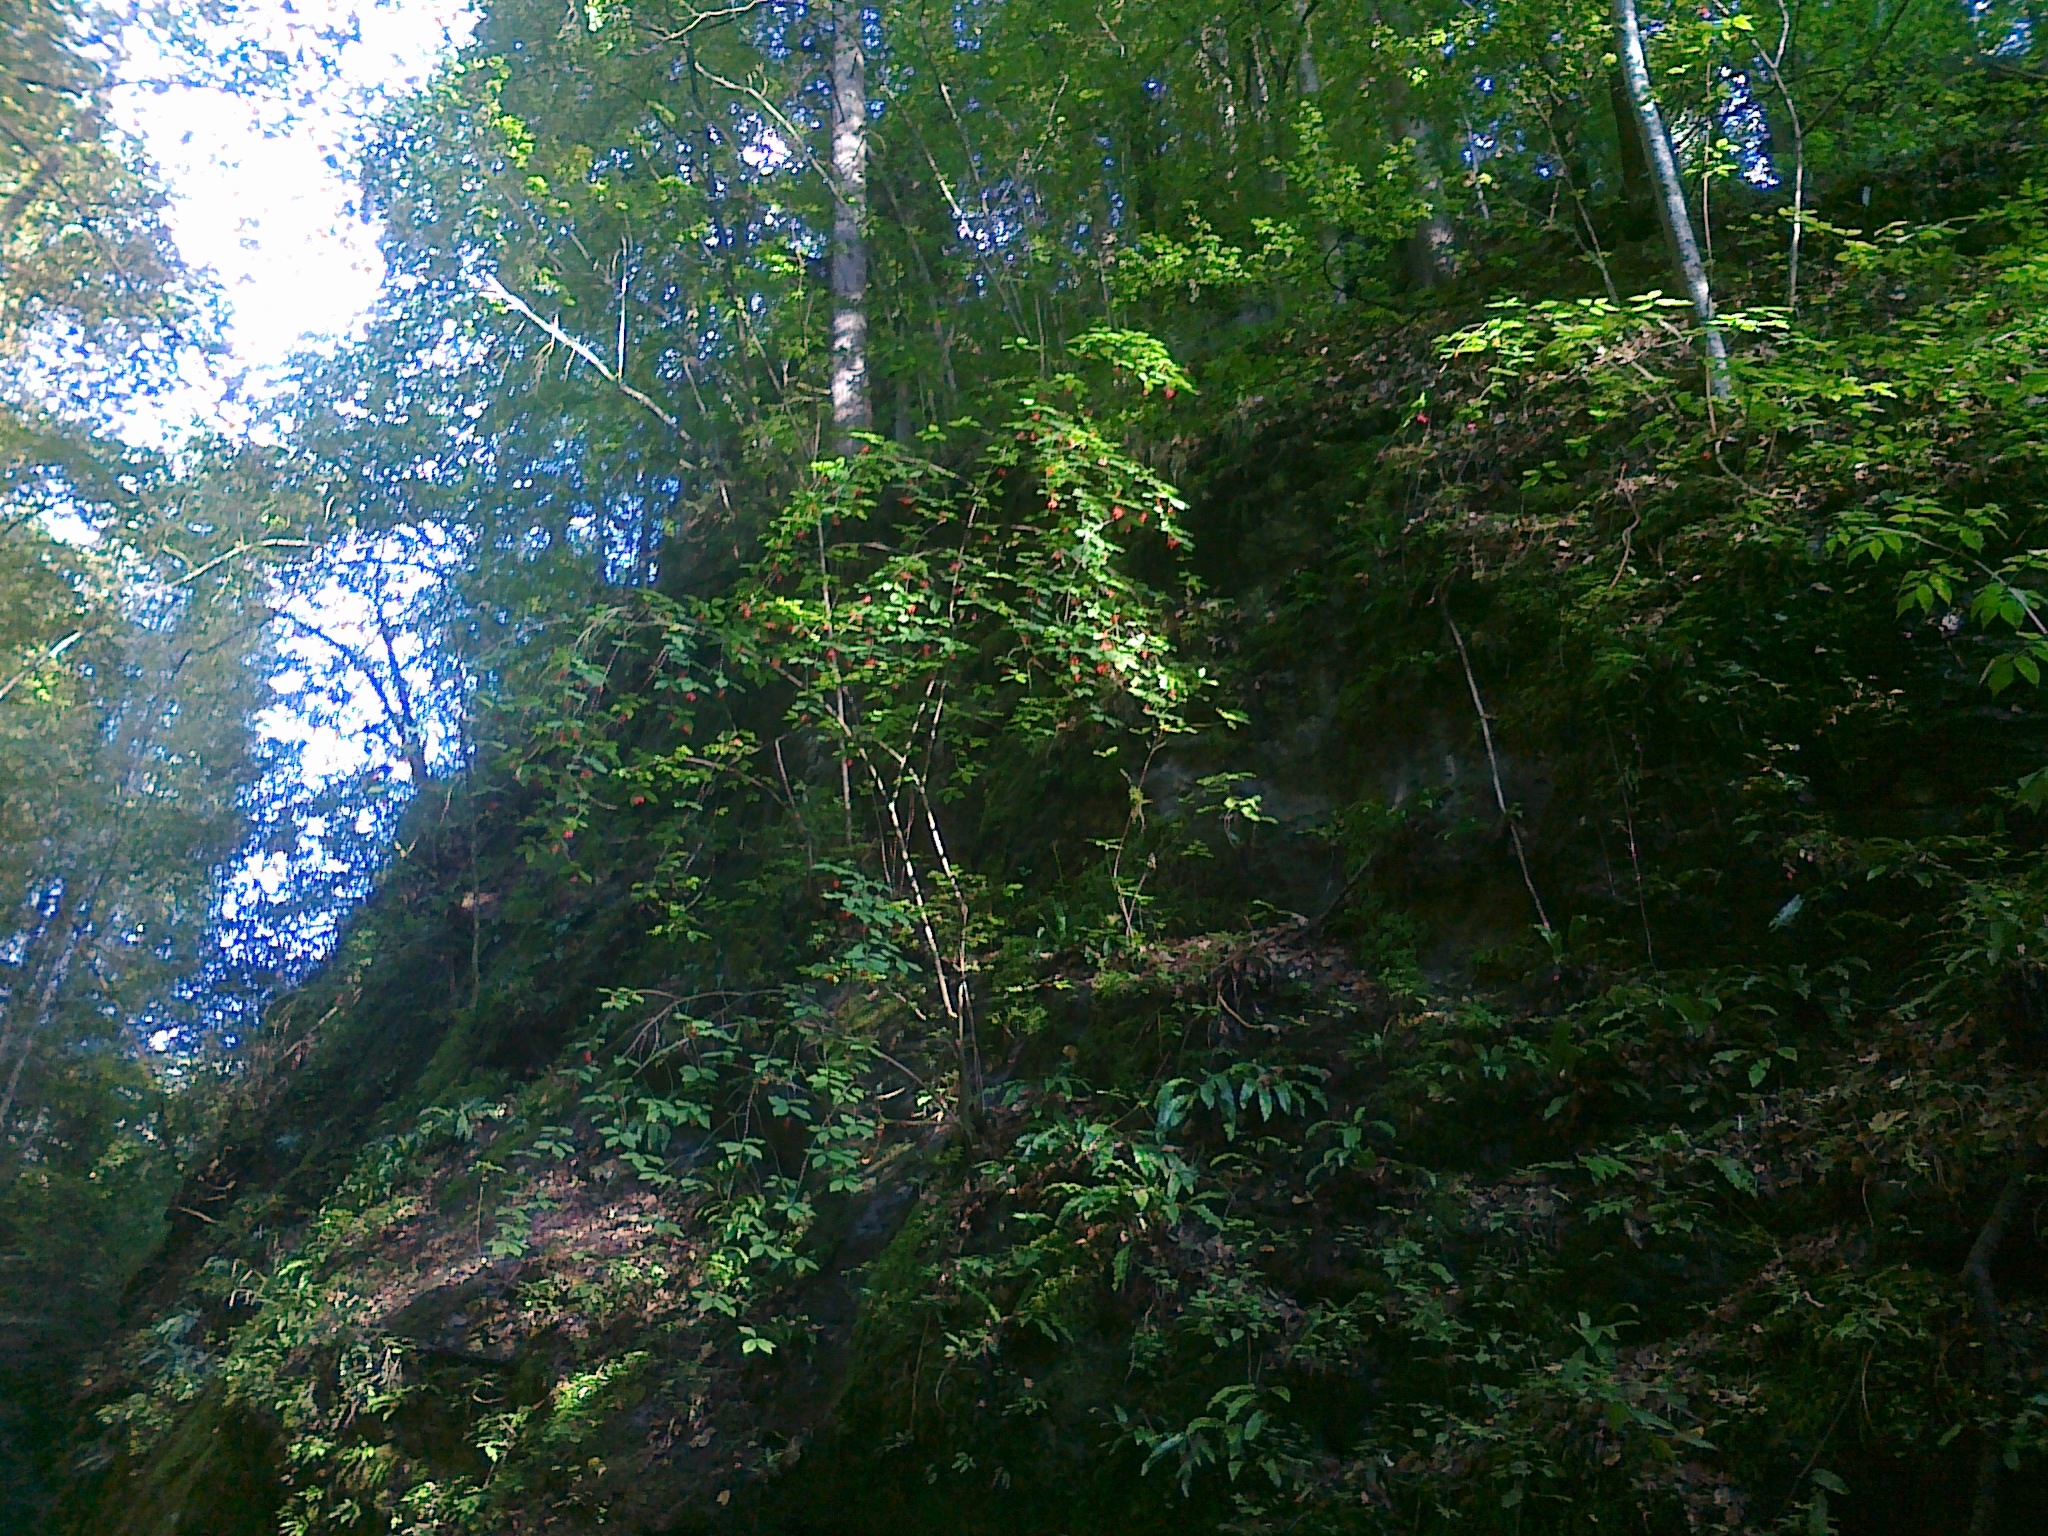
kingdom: Plantae
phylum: Tracheophyta
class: Magnoliopsida
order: Celastrales
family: Celastraceae
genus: Euonymus
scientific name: Euonymus latifolius
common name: Large-leaved spindle
